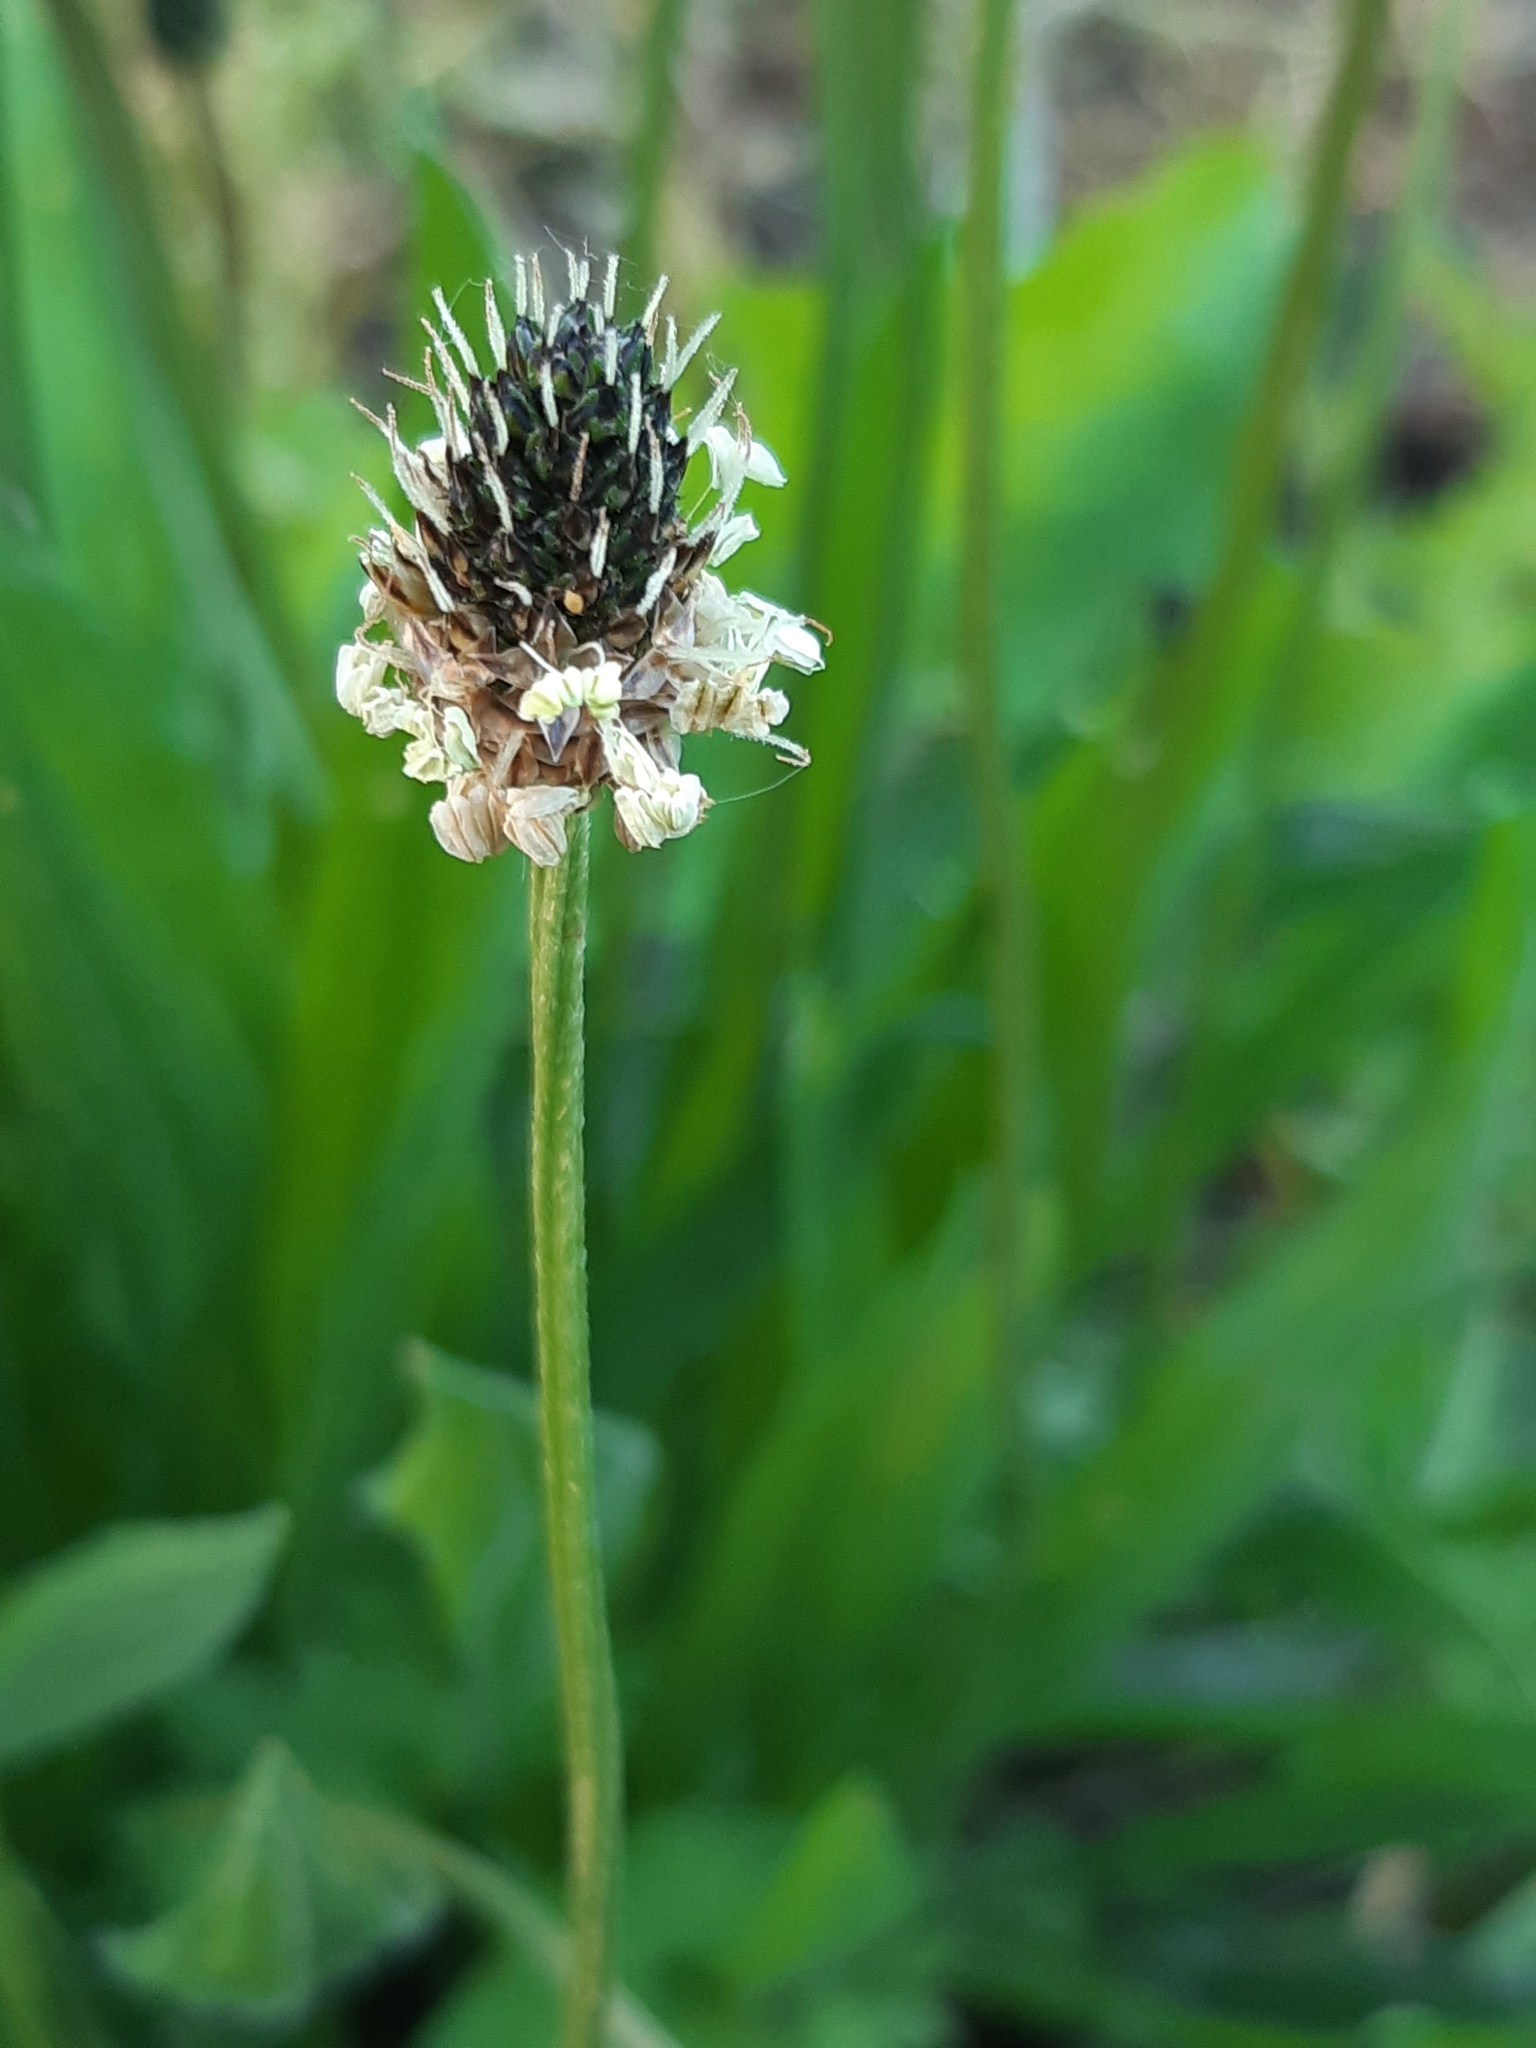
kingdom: Plantae
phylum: Tracheophyta
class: Magnoliopsida
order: Lamiales
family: Plantaginaceae
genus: Plantago
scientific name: Plantago lanceolata
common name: Ribwort plantain
